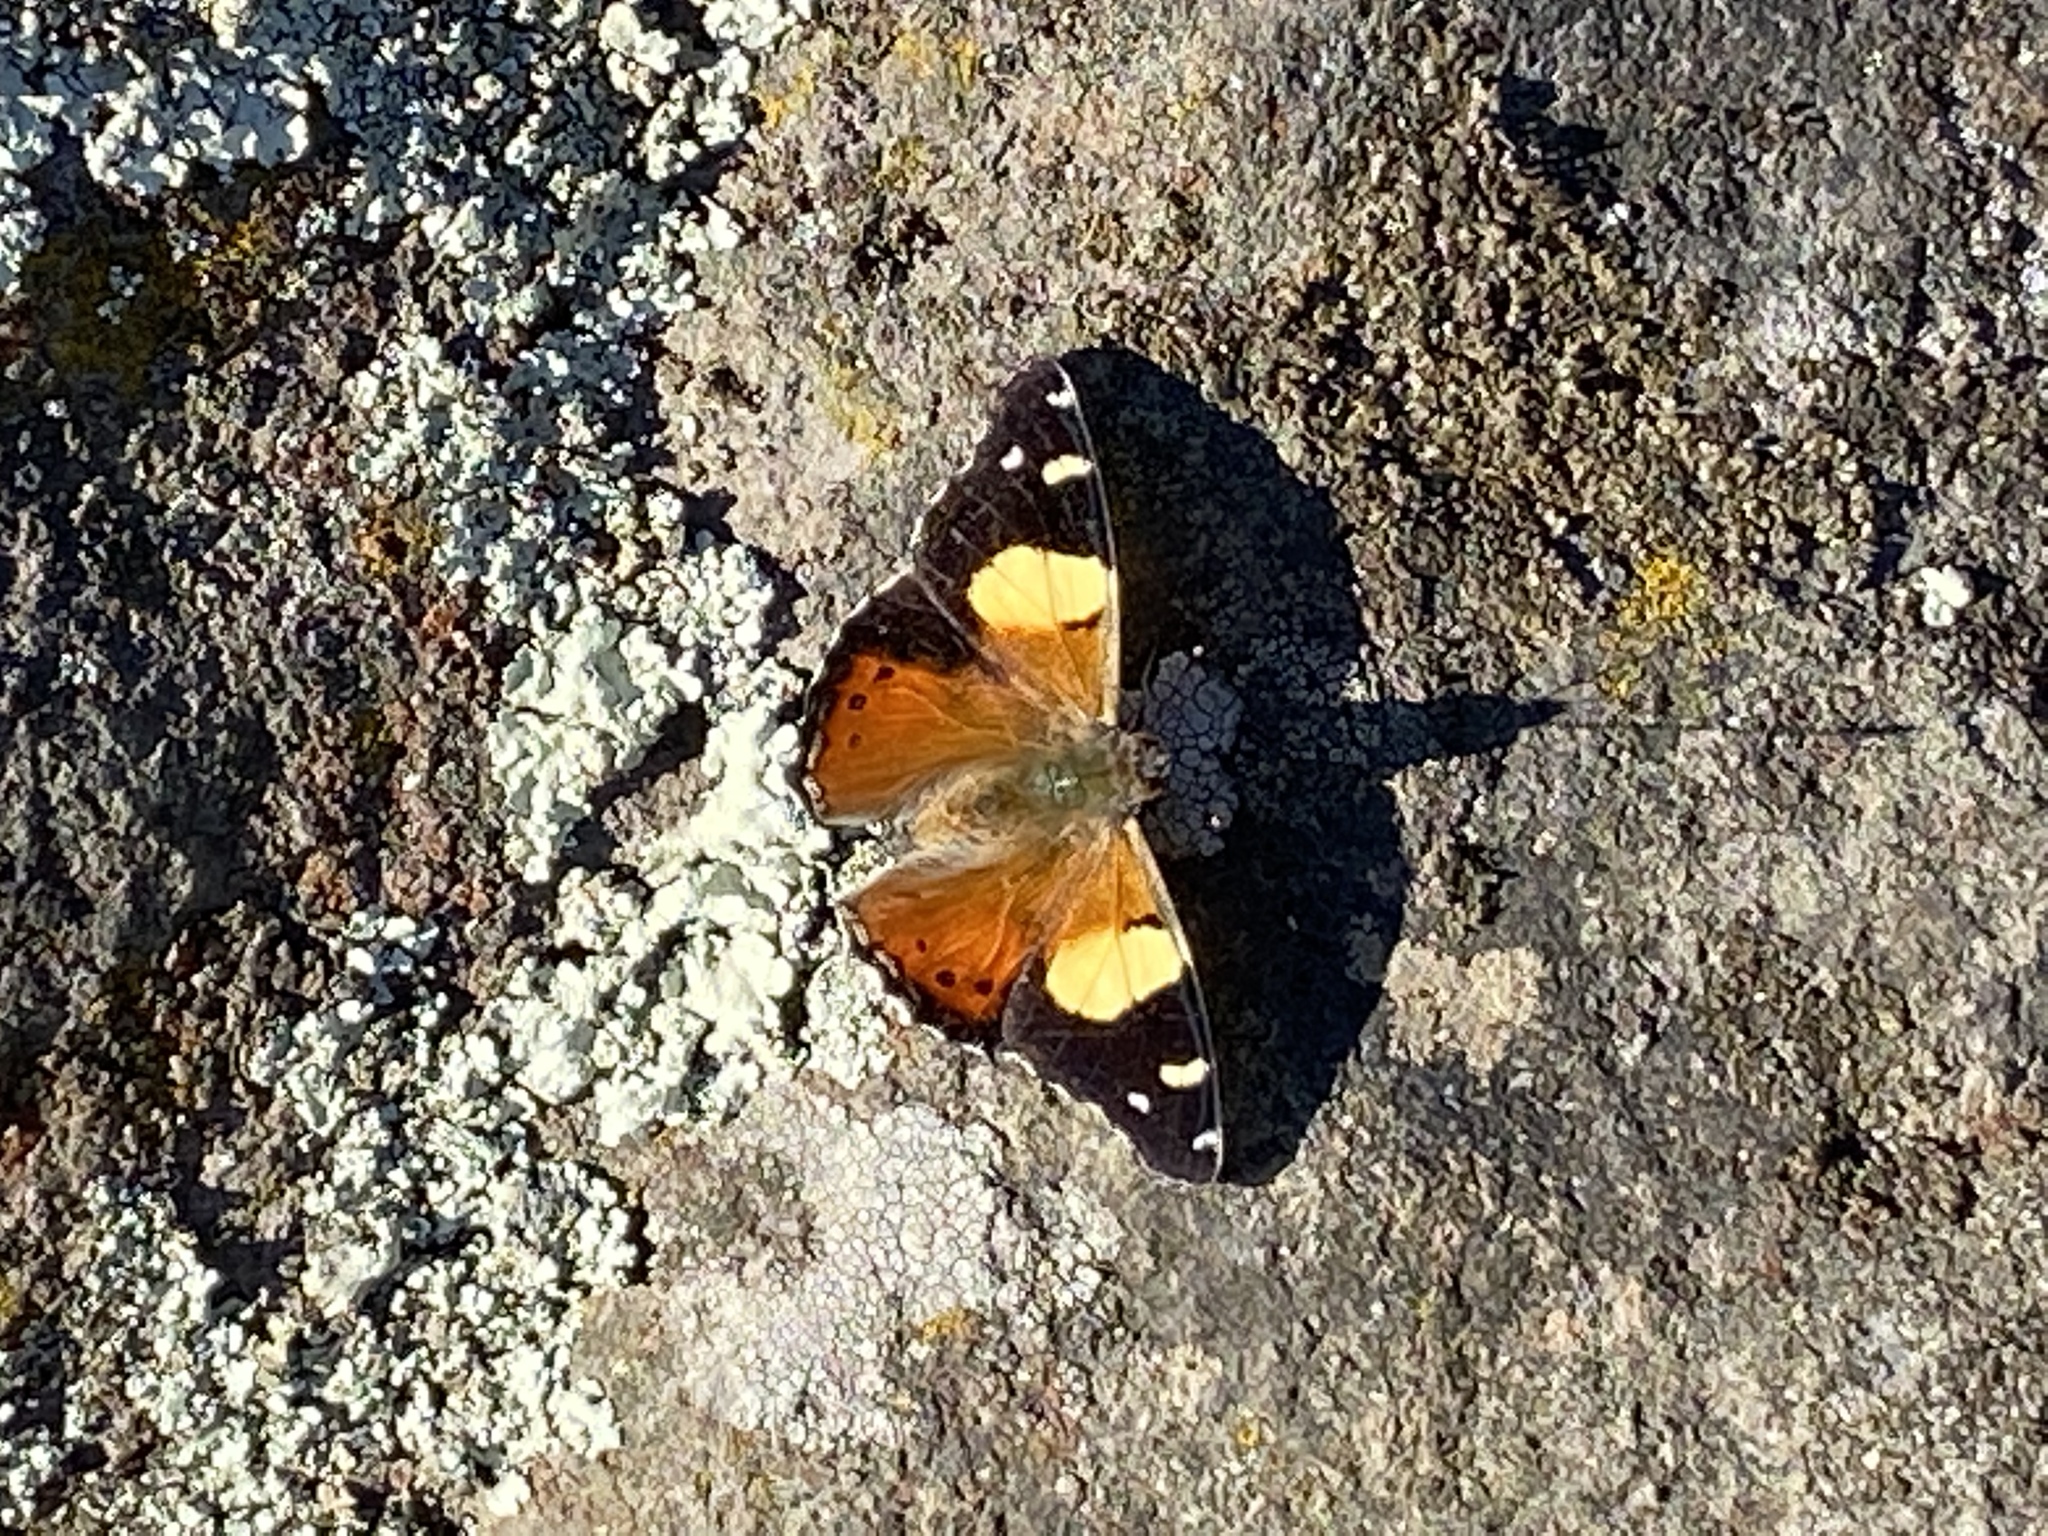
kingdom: Animalia
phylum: Arthropoda
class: Insecta
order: Lepidoptera
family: Nymphalidae
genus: Vanessa
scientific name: Vanessa itea
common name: Yellow admiral
